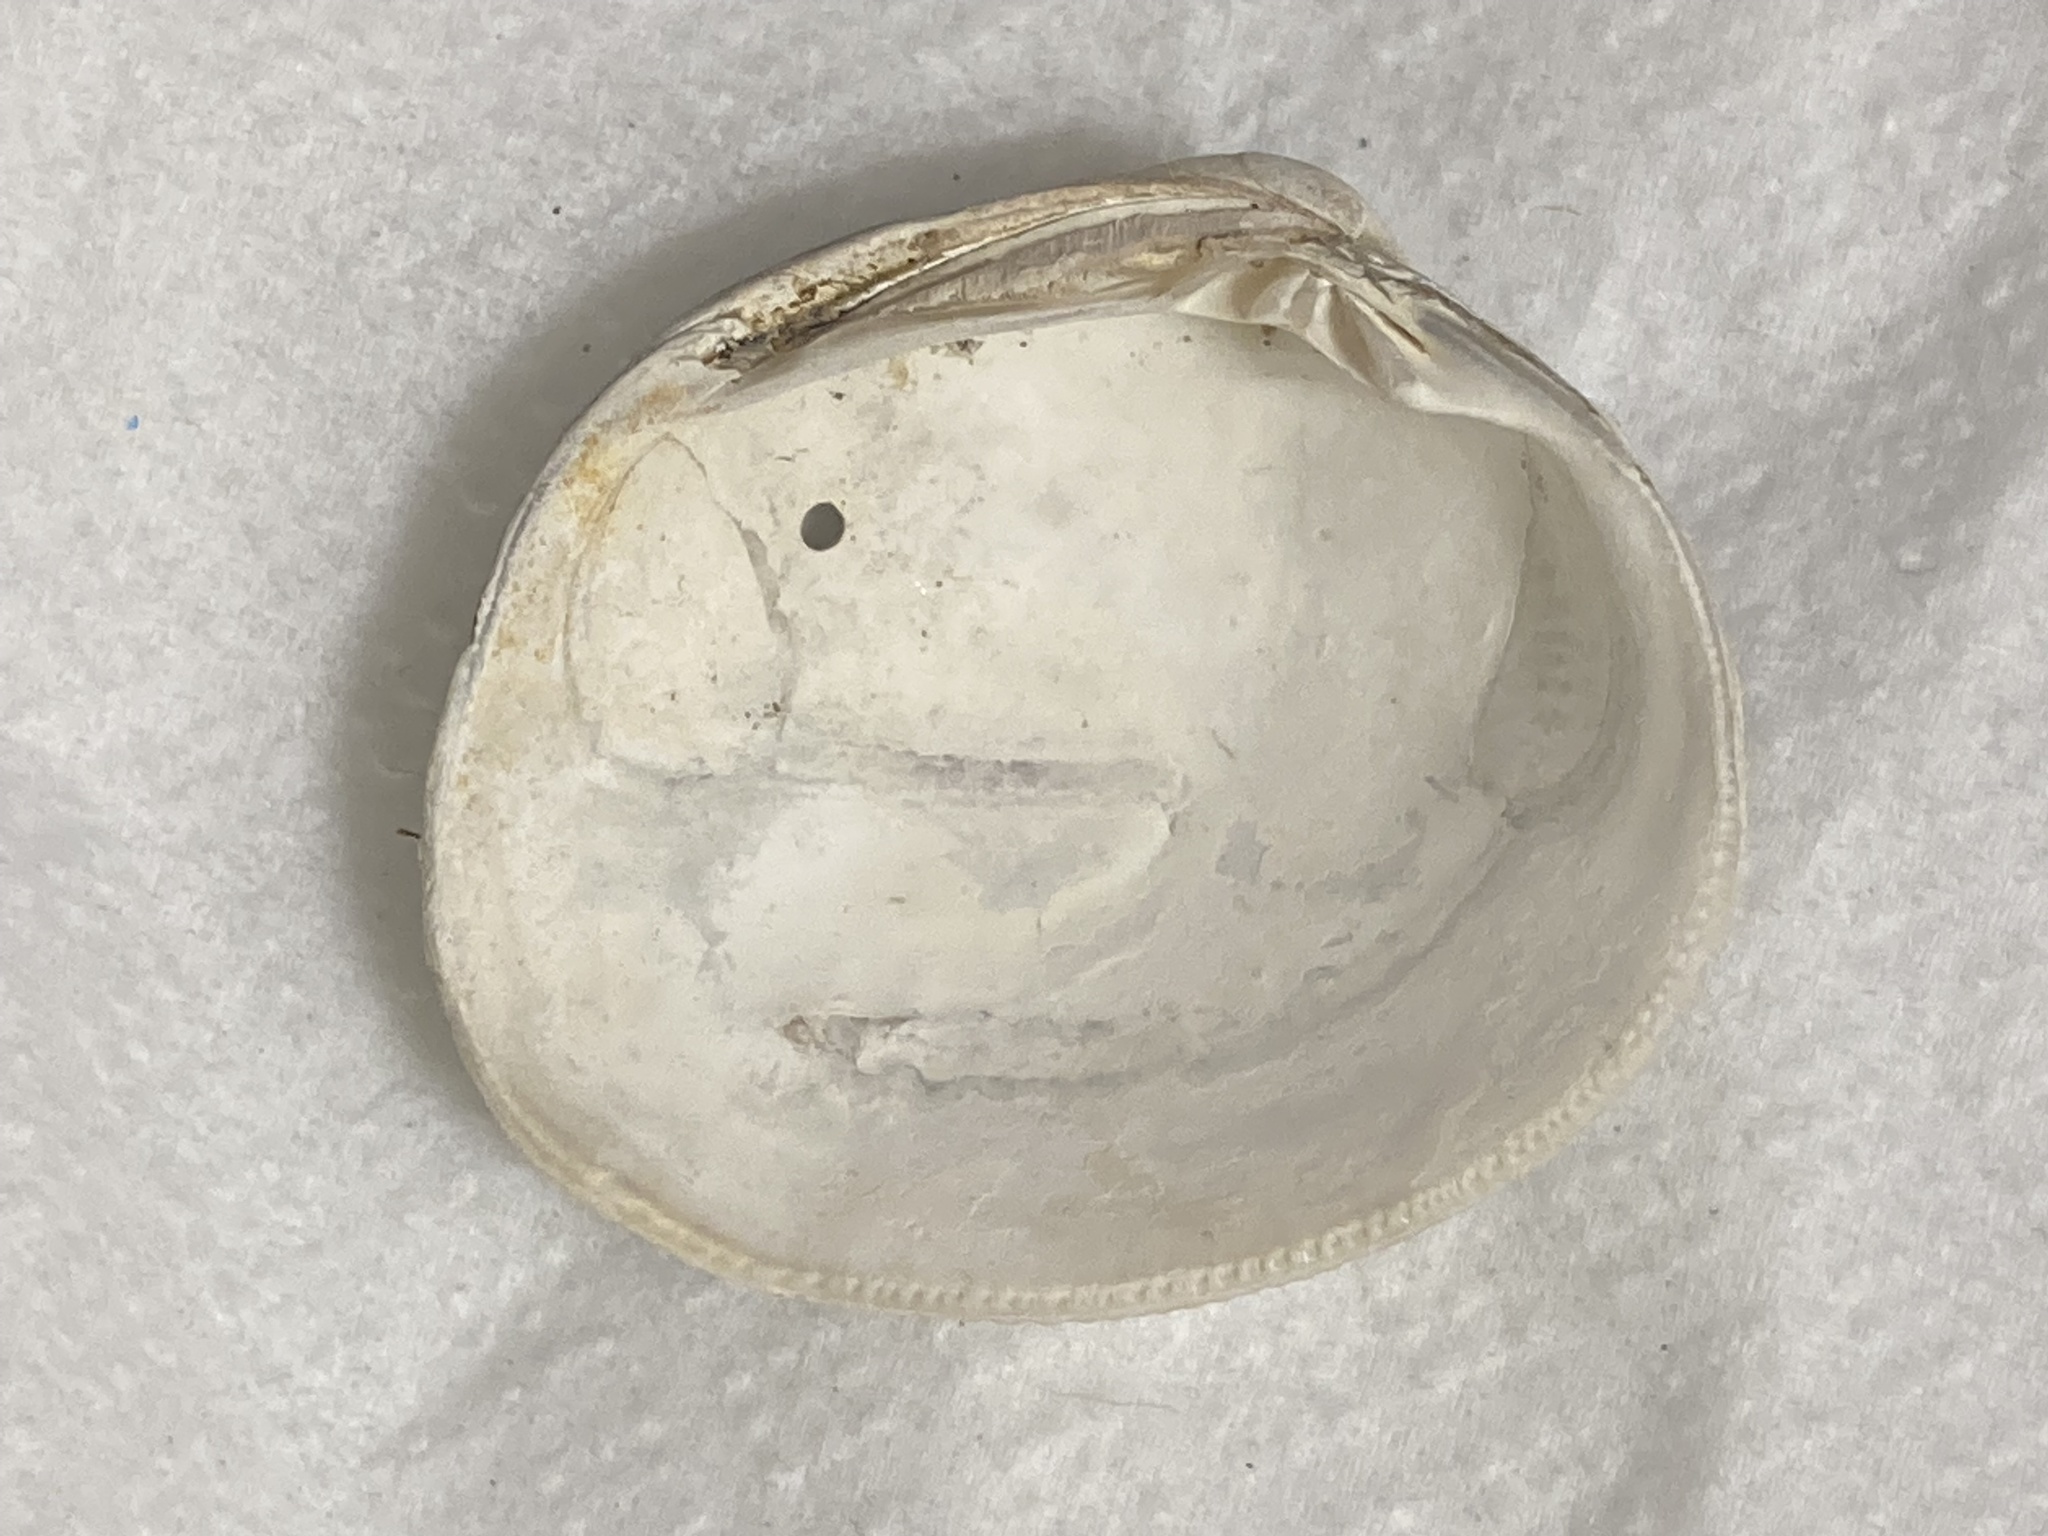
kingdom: Animalia
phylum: Mollusca
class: Bivalvia
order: Venerida
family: Veneridae
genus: Leukoma
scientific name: Leukoma staminea
